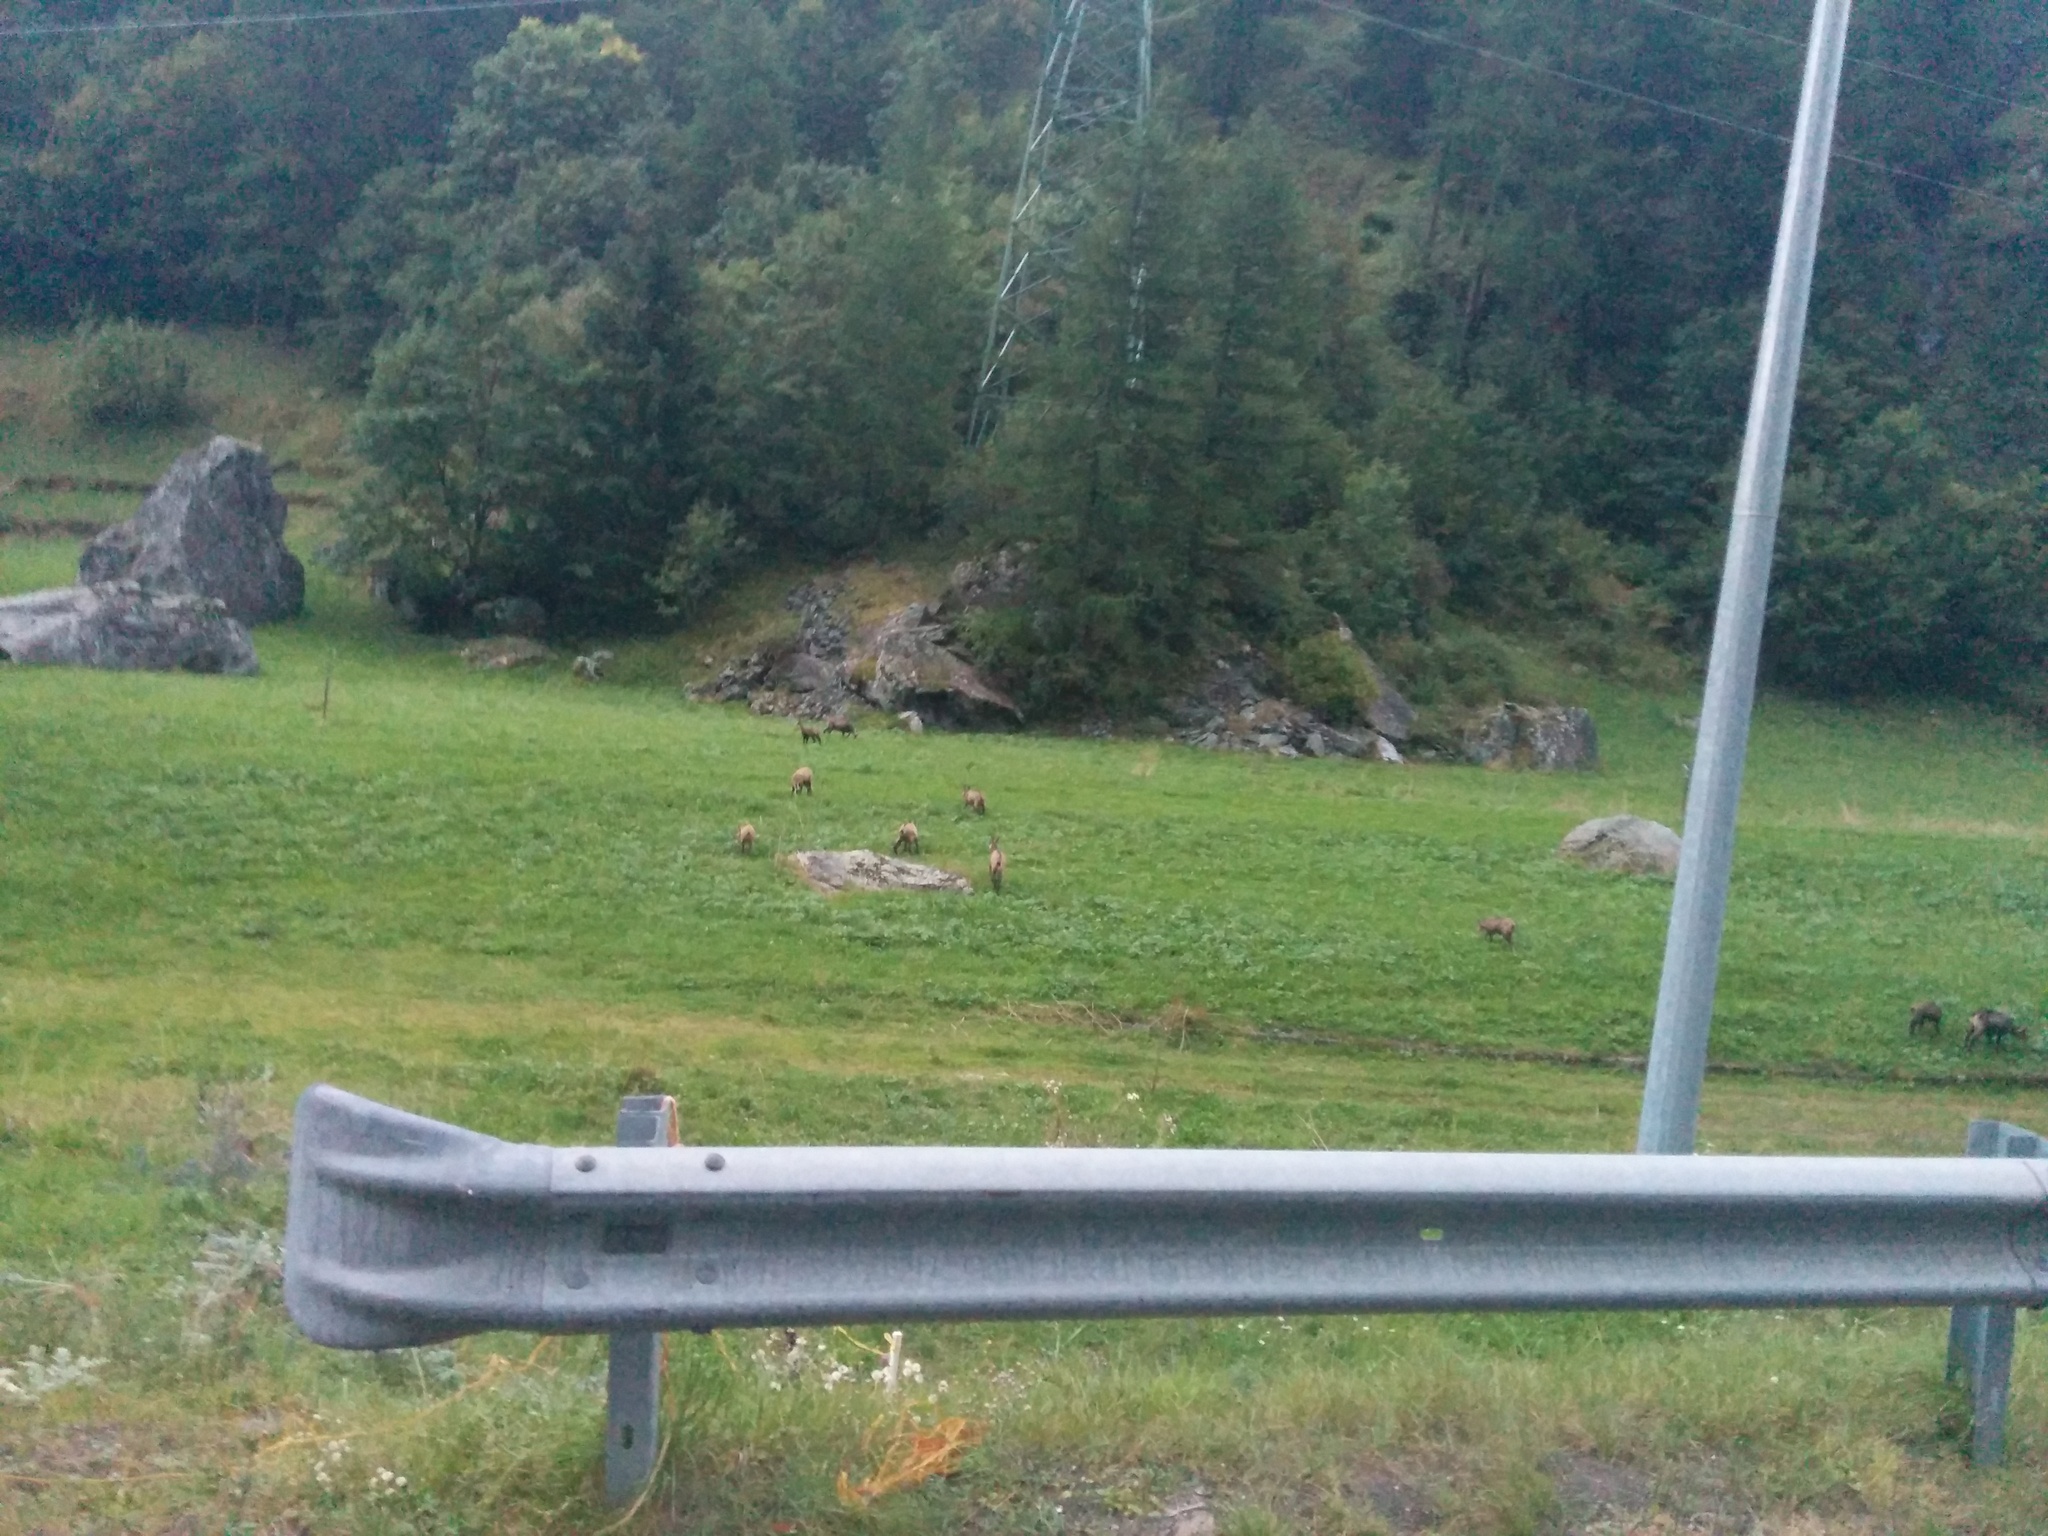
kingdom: Animalia
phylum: Chordata
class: Mammalia
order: Artiodactyla
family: Bovidae
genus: Rupicapra
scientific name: Rupicapra rupicapra
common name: Chamois
